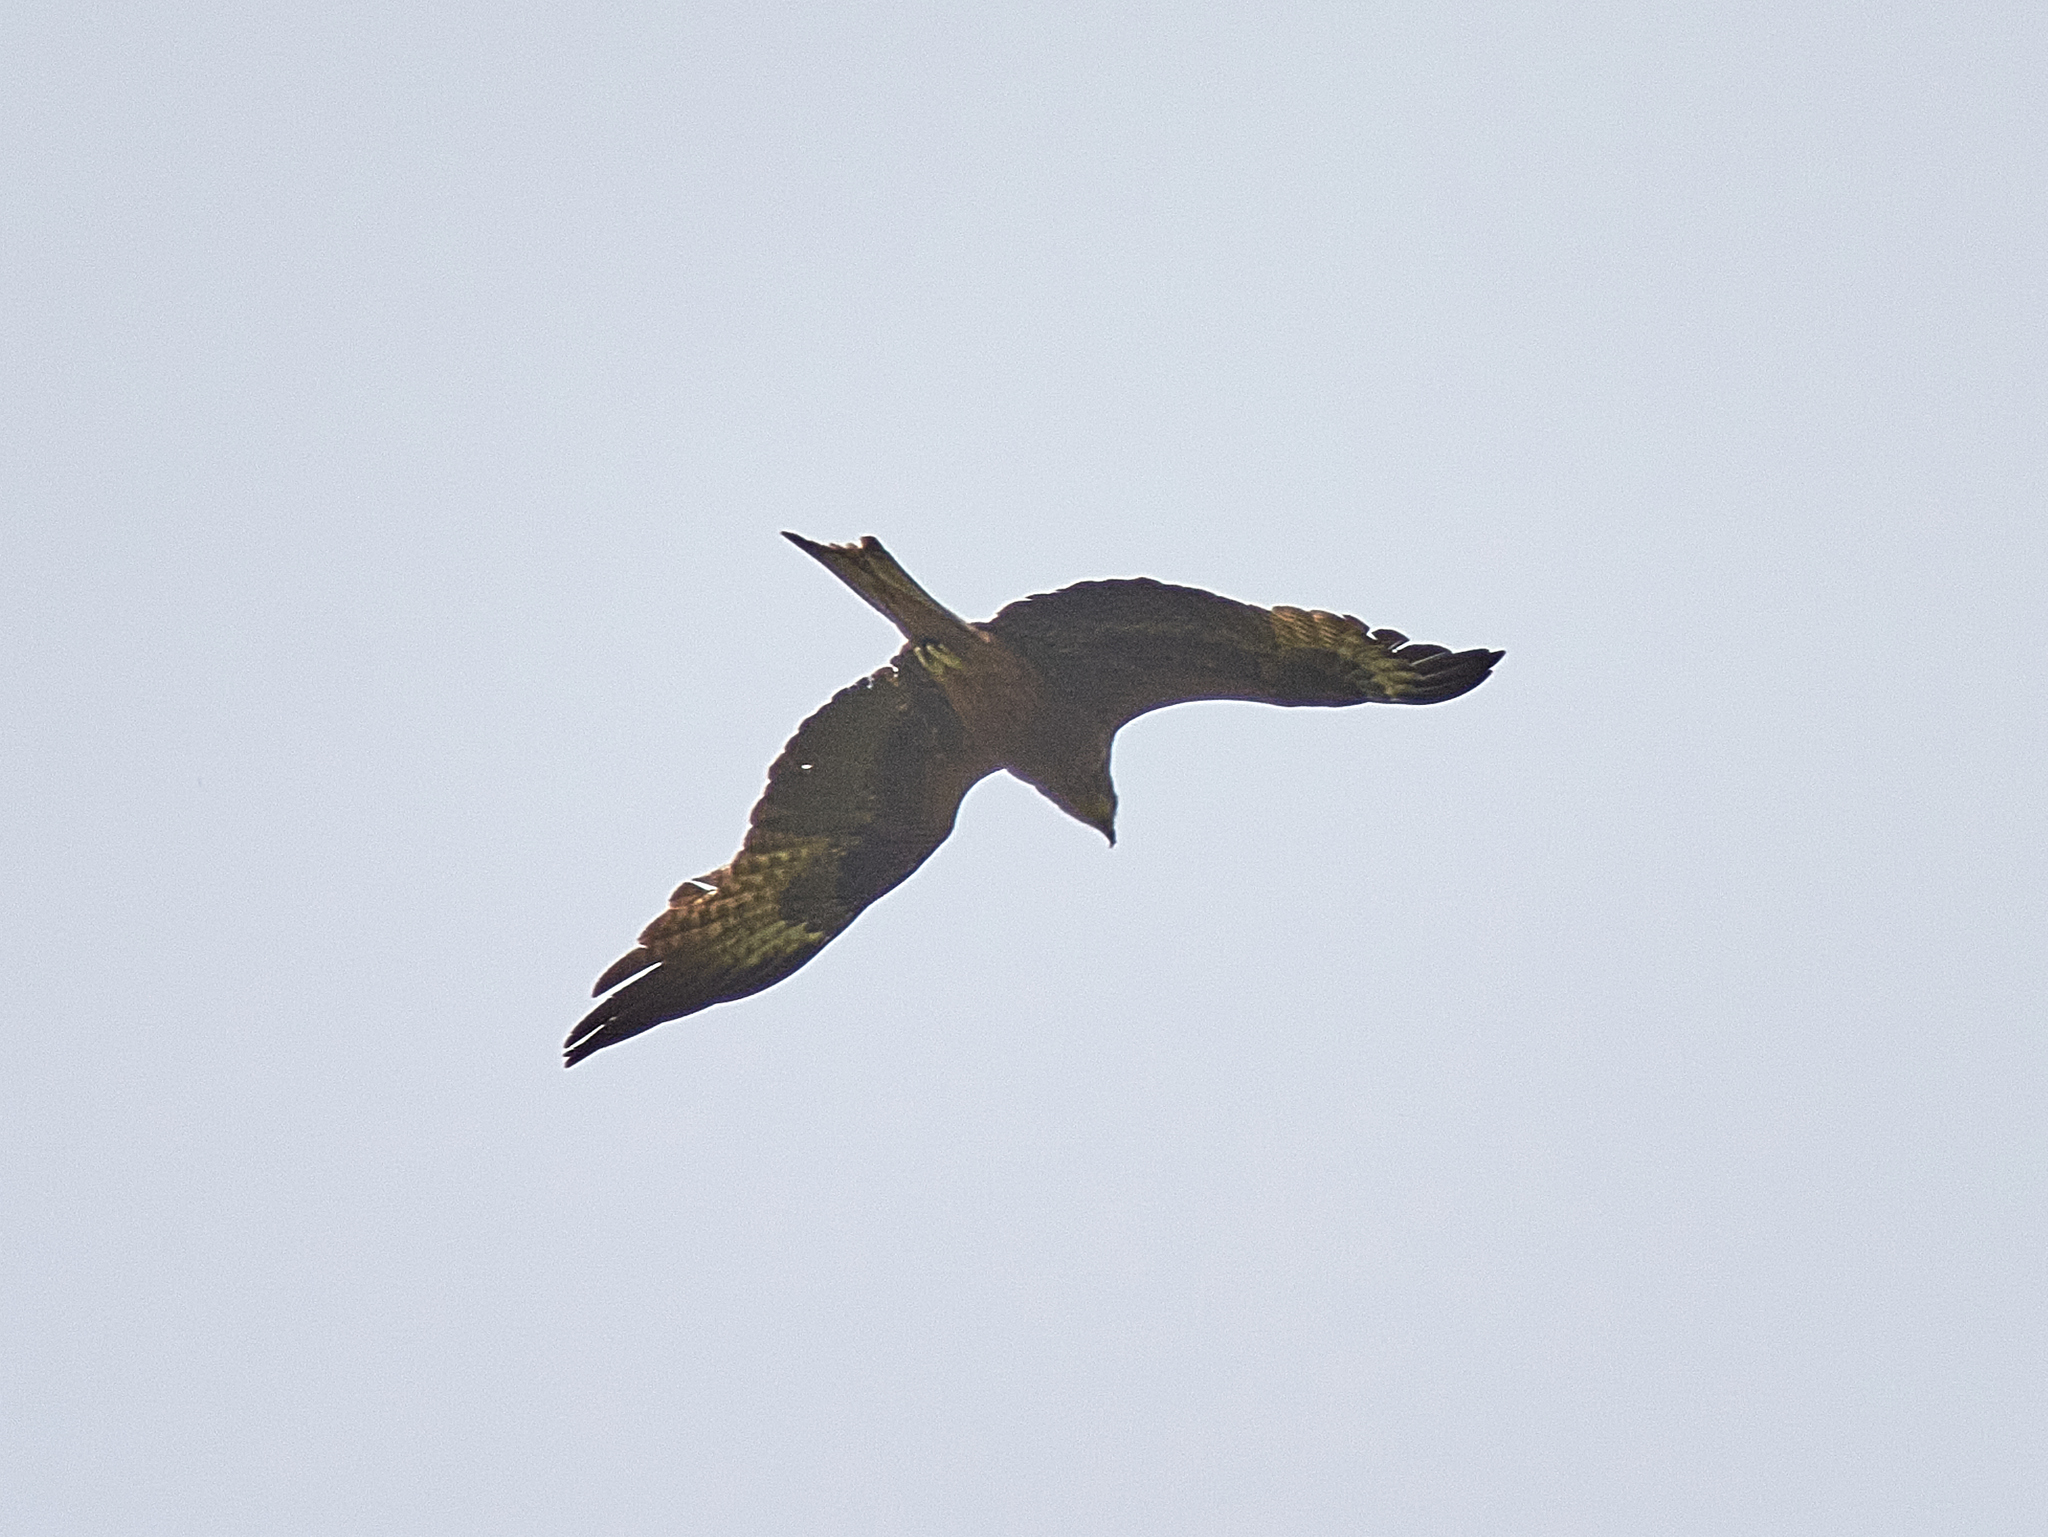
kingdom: Animalia
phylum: Chordata
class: Aves
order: Accipitriformes
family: Accipitridae
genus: Milvus
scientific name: Milvus migrans
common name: Black kite
